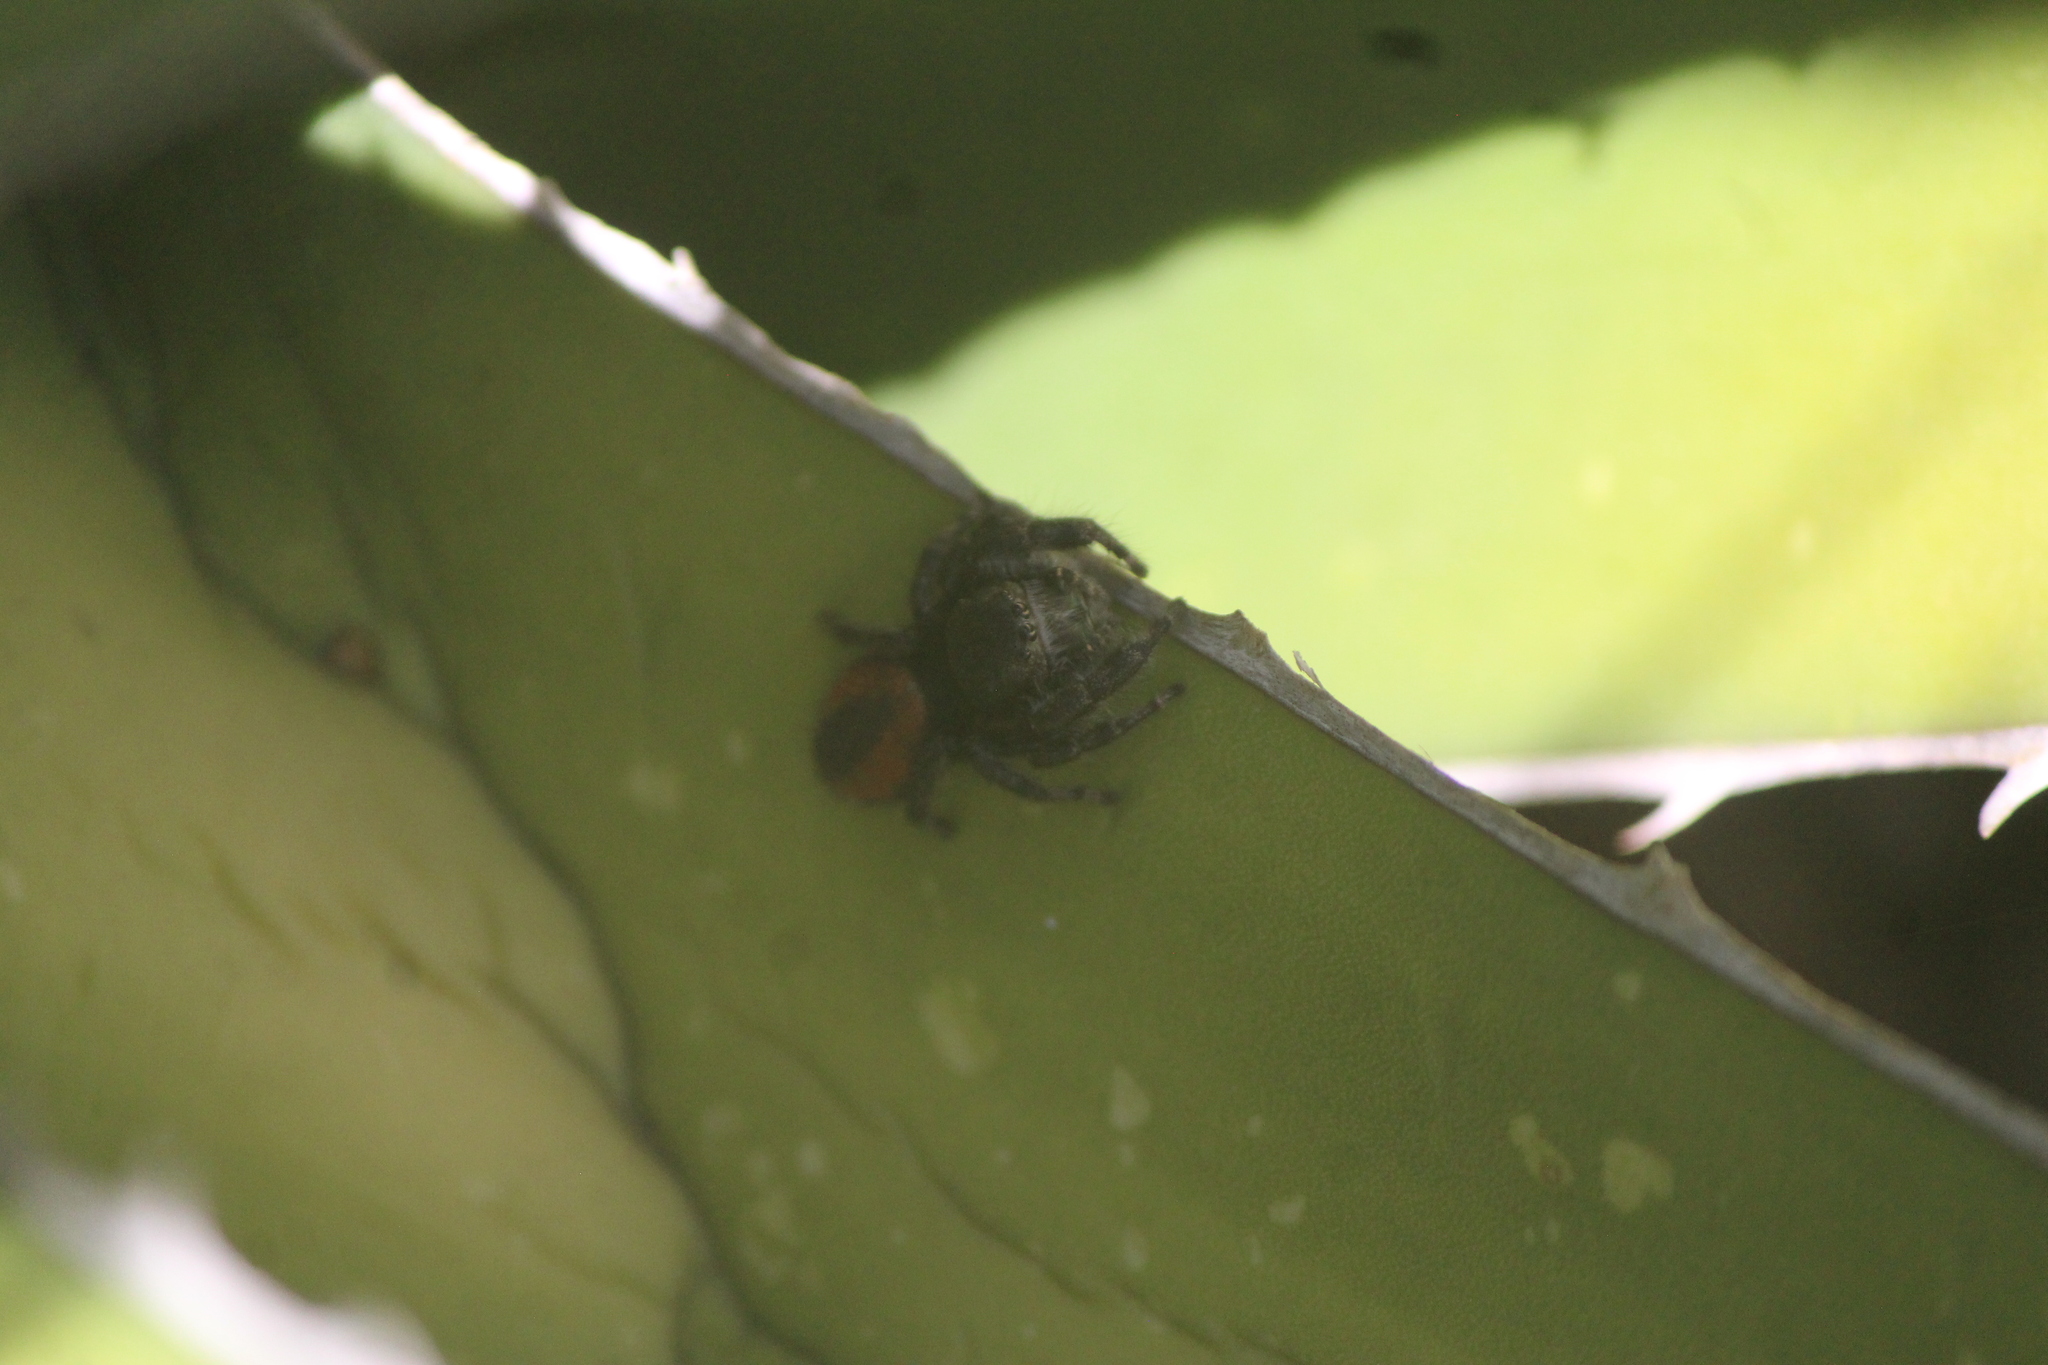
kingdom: Animalia
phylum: Arthropoda
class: Arachnida
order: Araneae
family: Salticidae
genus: Phidippus
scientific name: Phidippus carneus
